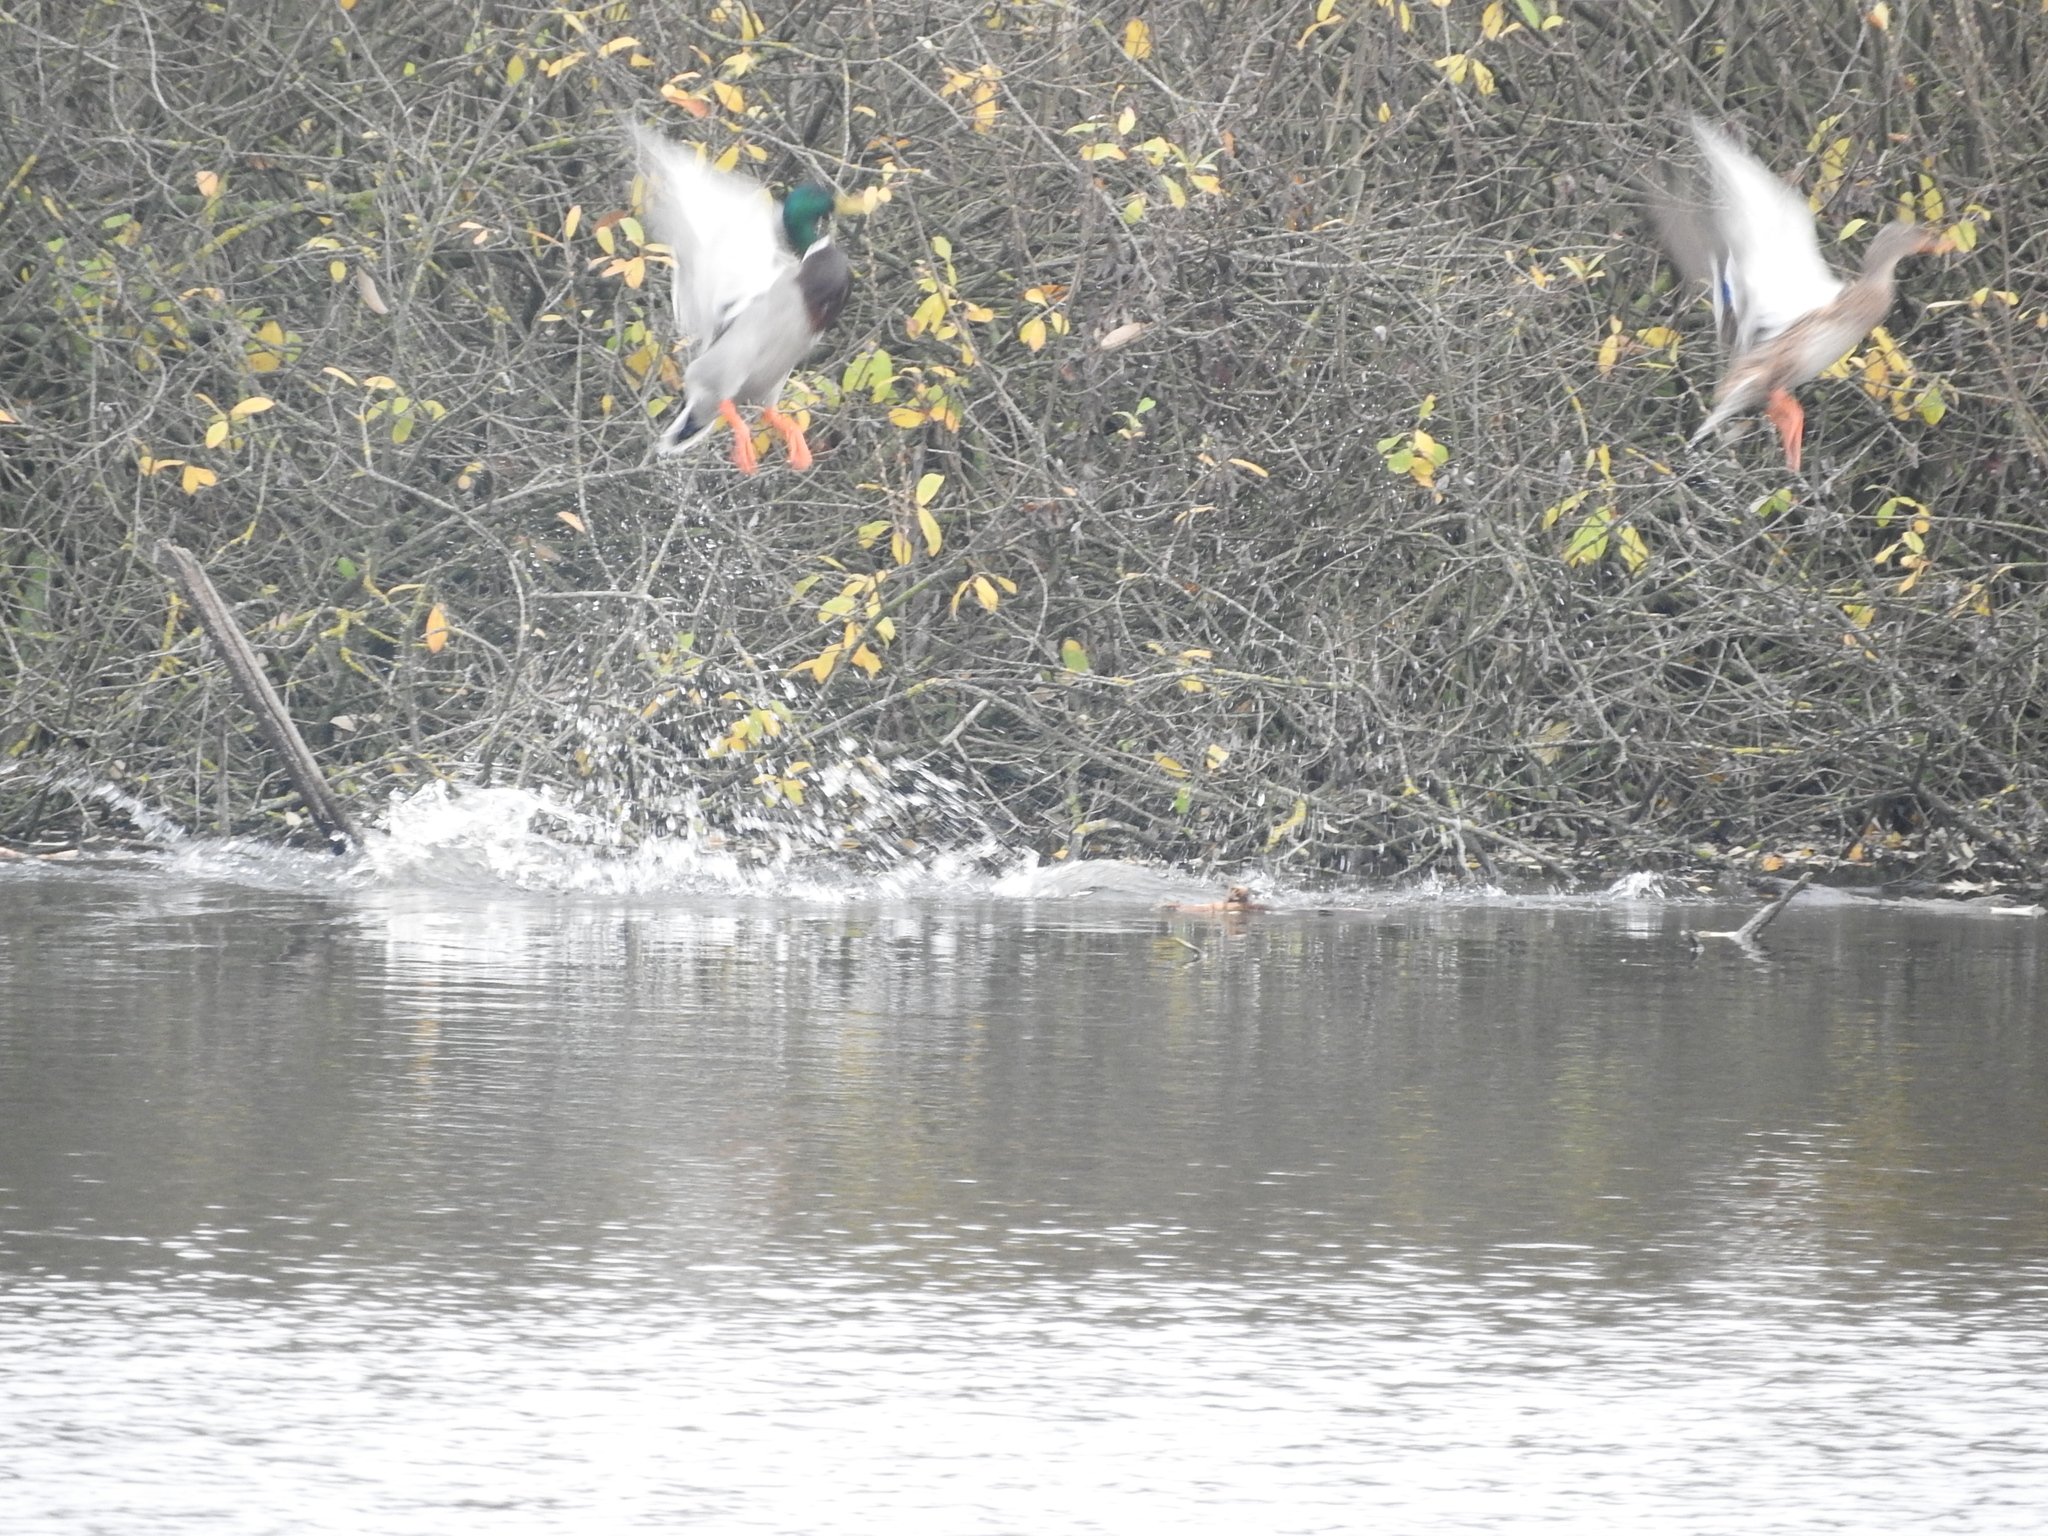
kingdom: Animalia
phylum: Chordata
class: Aves
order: Anseriformes
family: Anatidae
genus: Anas
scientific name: Anas platyrhynchos
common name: Mallard
